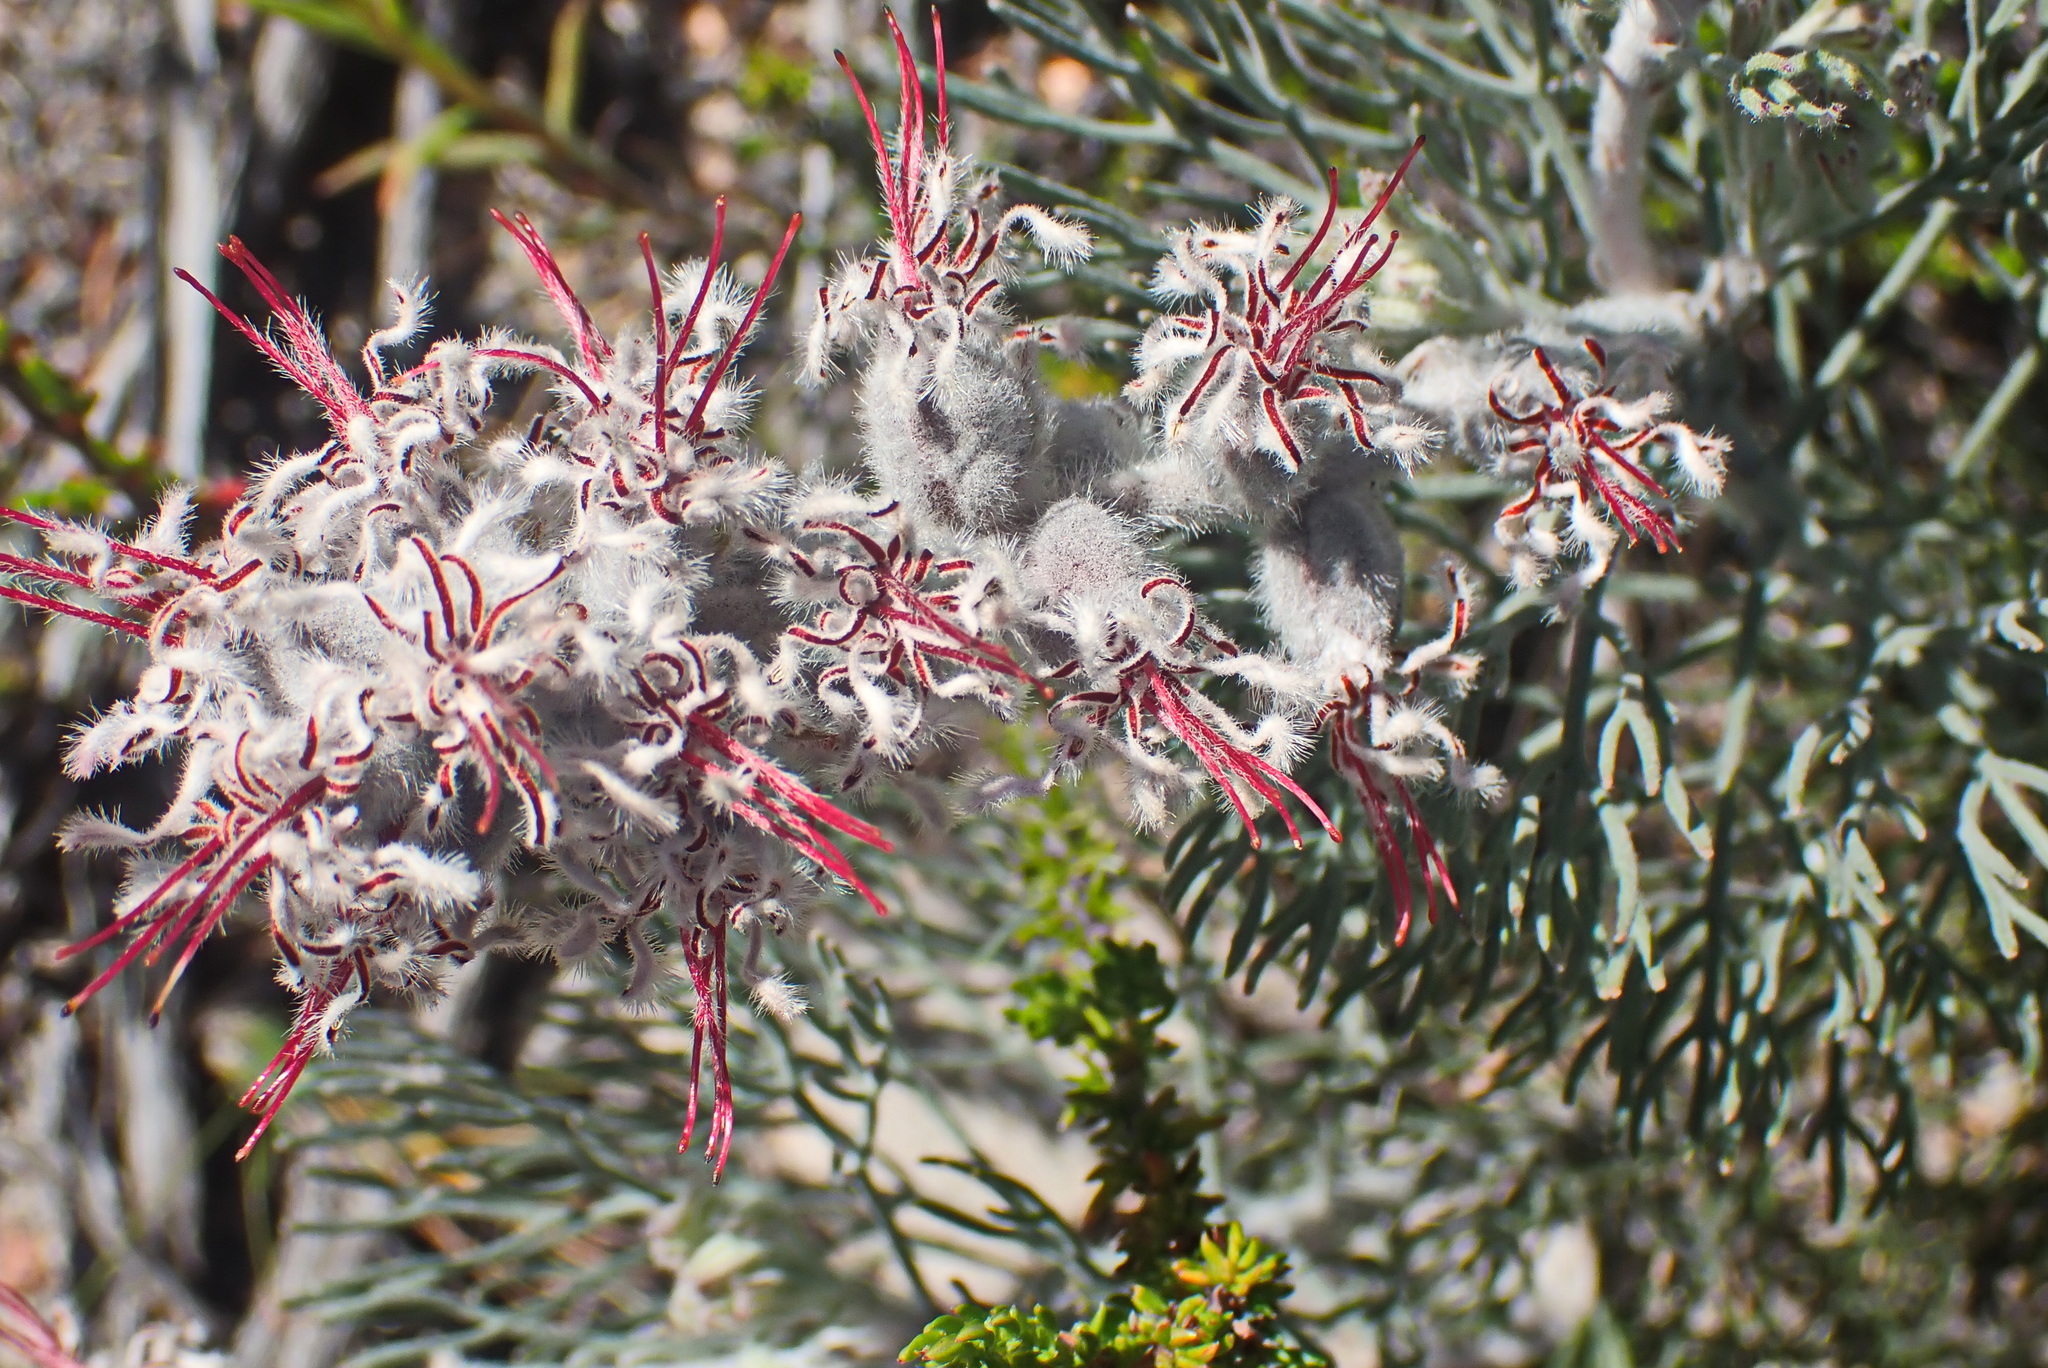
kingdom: Plantae
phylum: Tracheophyta
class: Magnoliopsida
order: Proteales
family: Proteaceae
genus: Paranomus
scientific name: Paranomus dispersus
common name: Long-head sceptre
